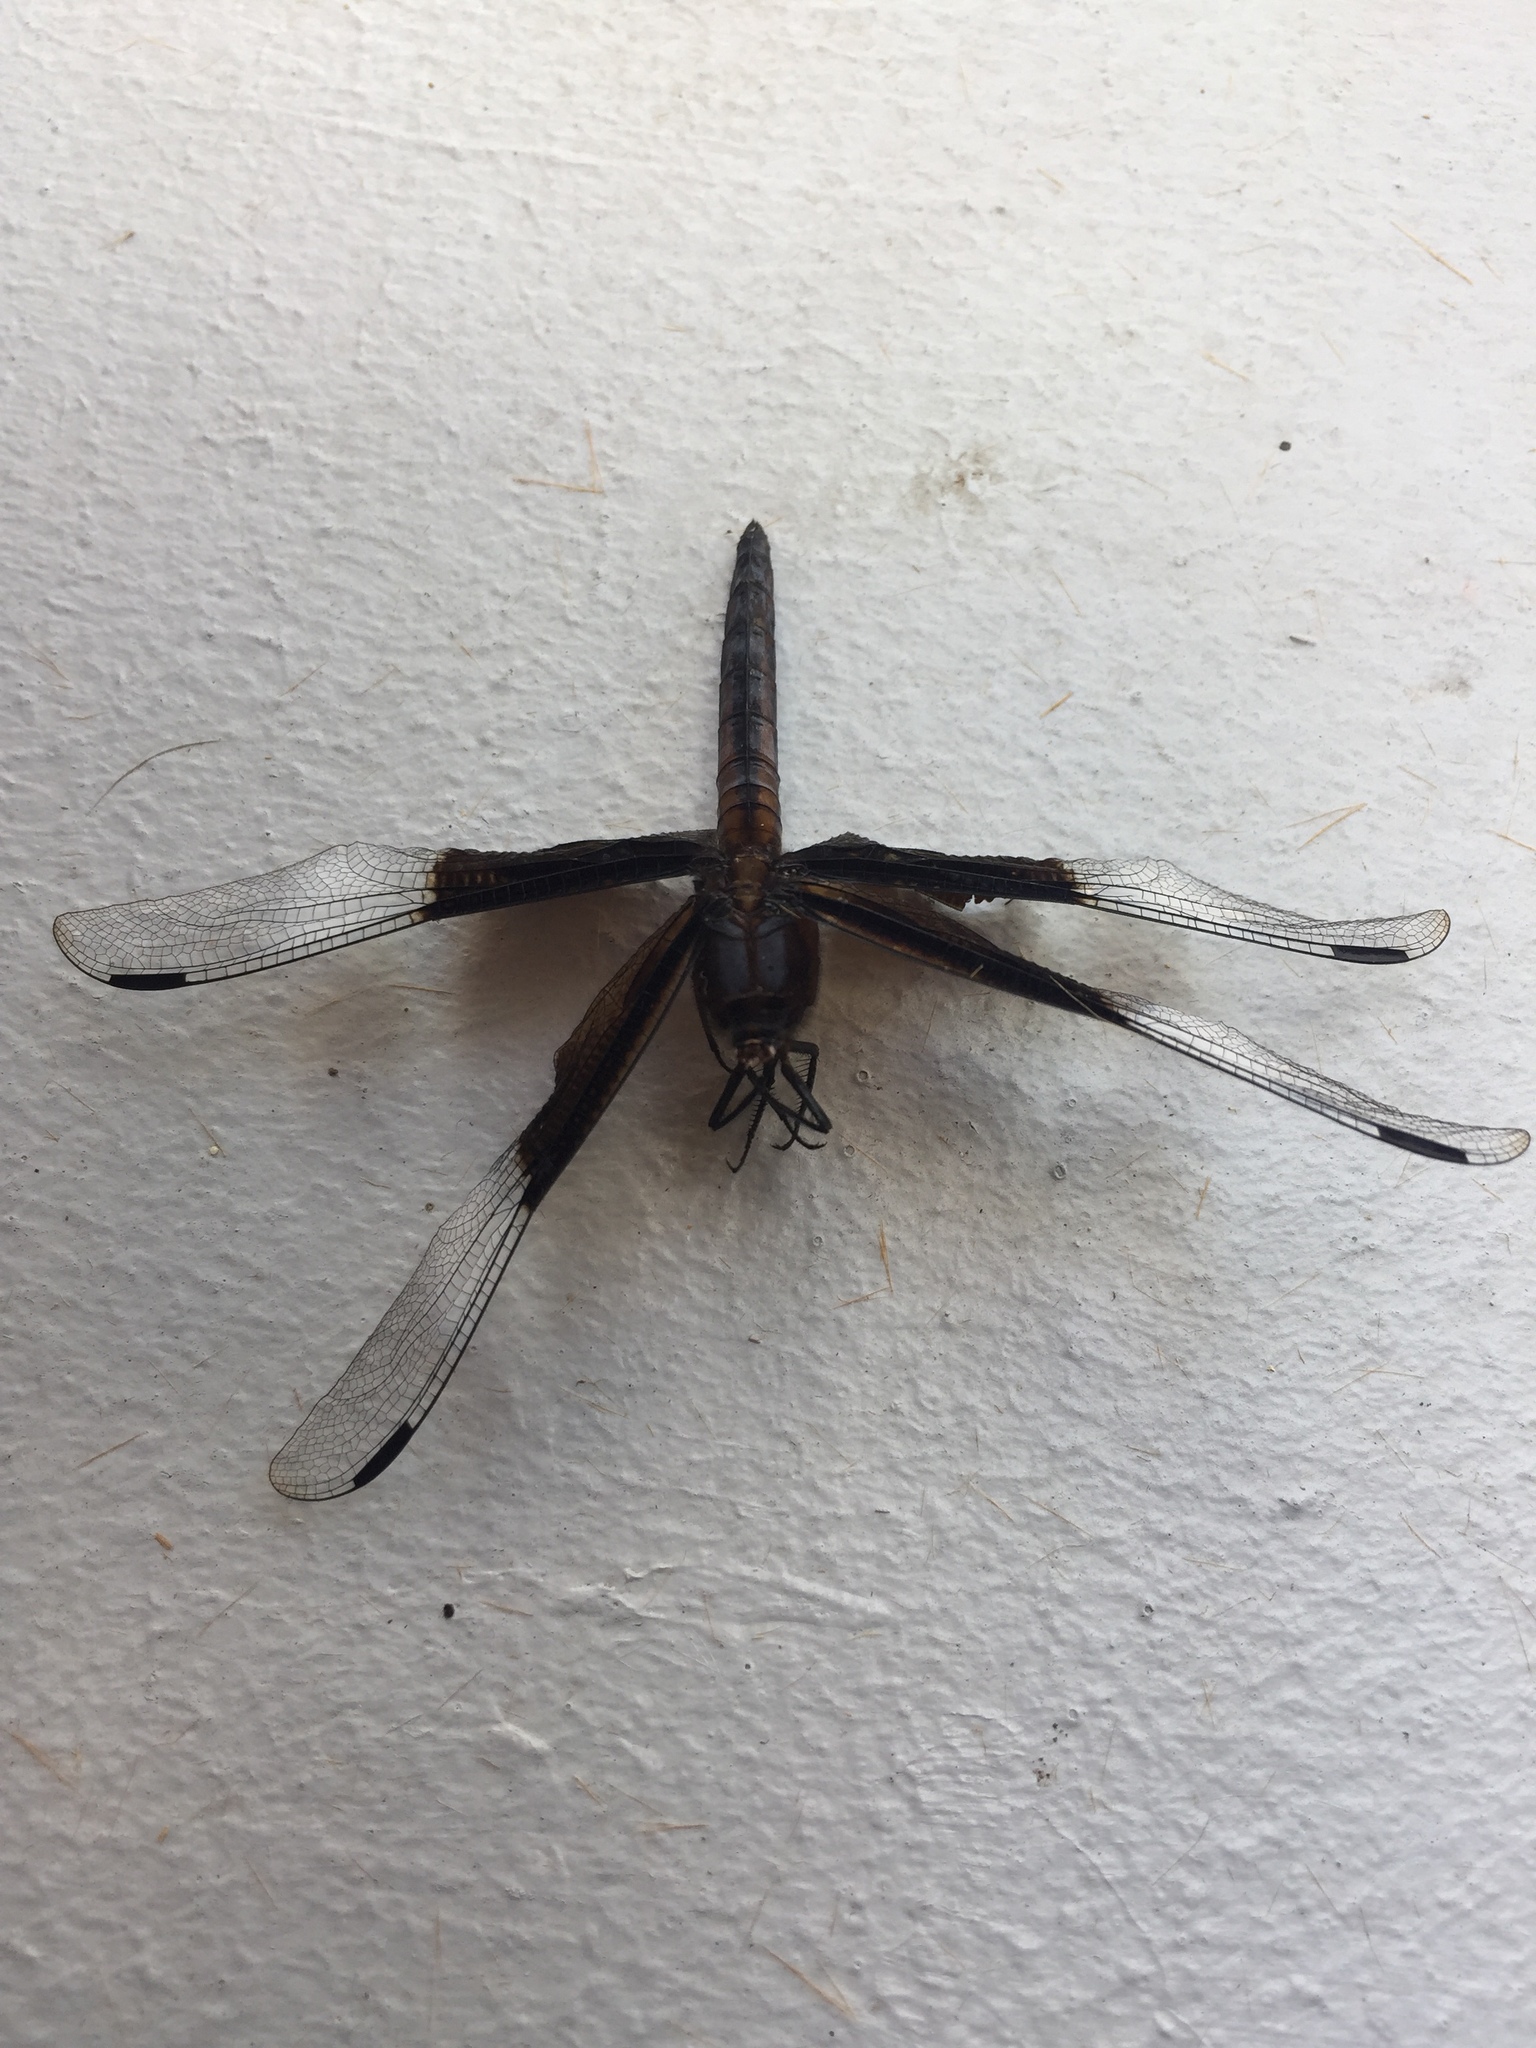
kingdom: Animalia
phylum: Arthropoda
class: Insecta
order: Odonata
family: Libellulidae
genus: Libellula
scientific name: Libellula luctuosa
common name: Widow skimmer
